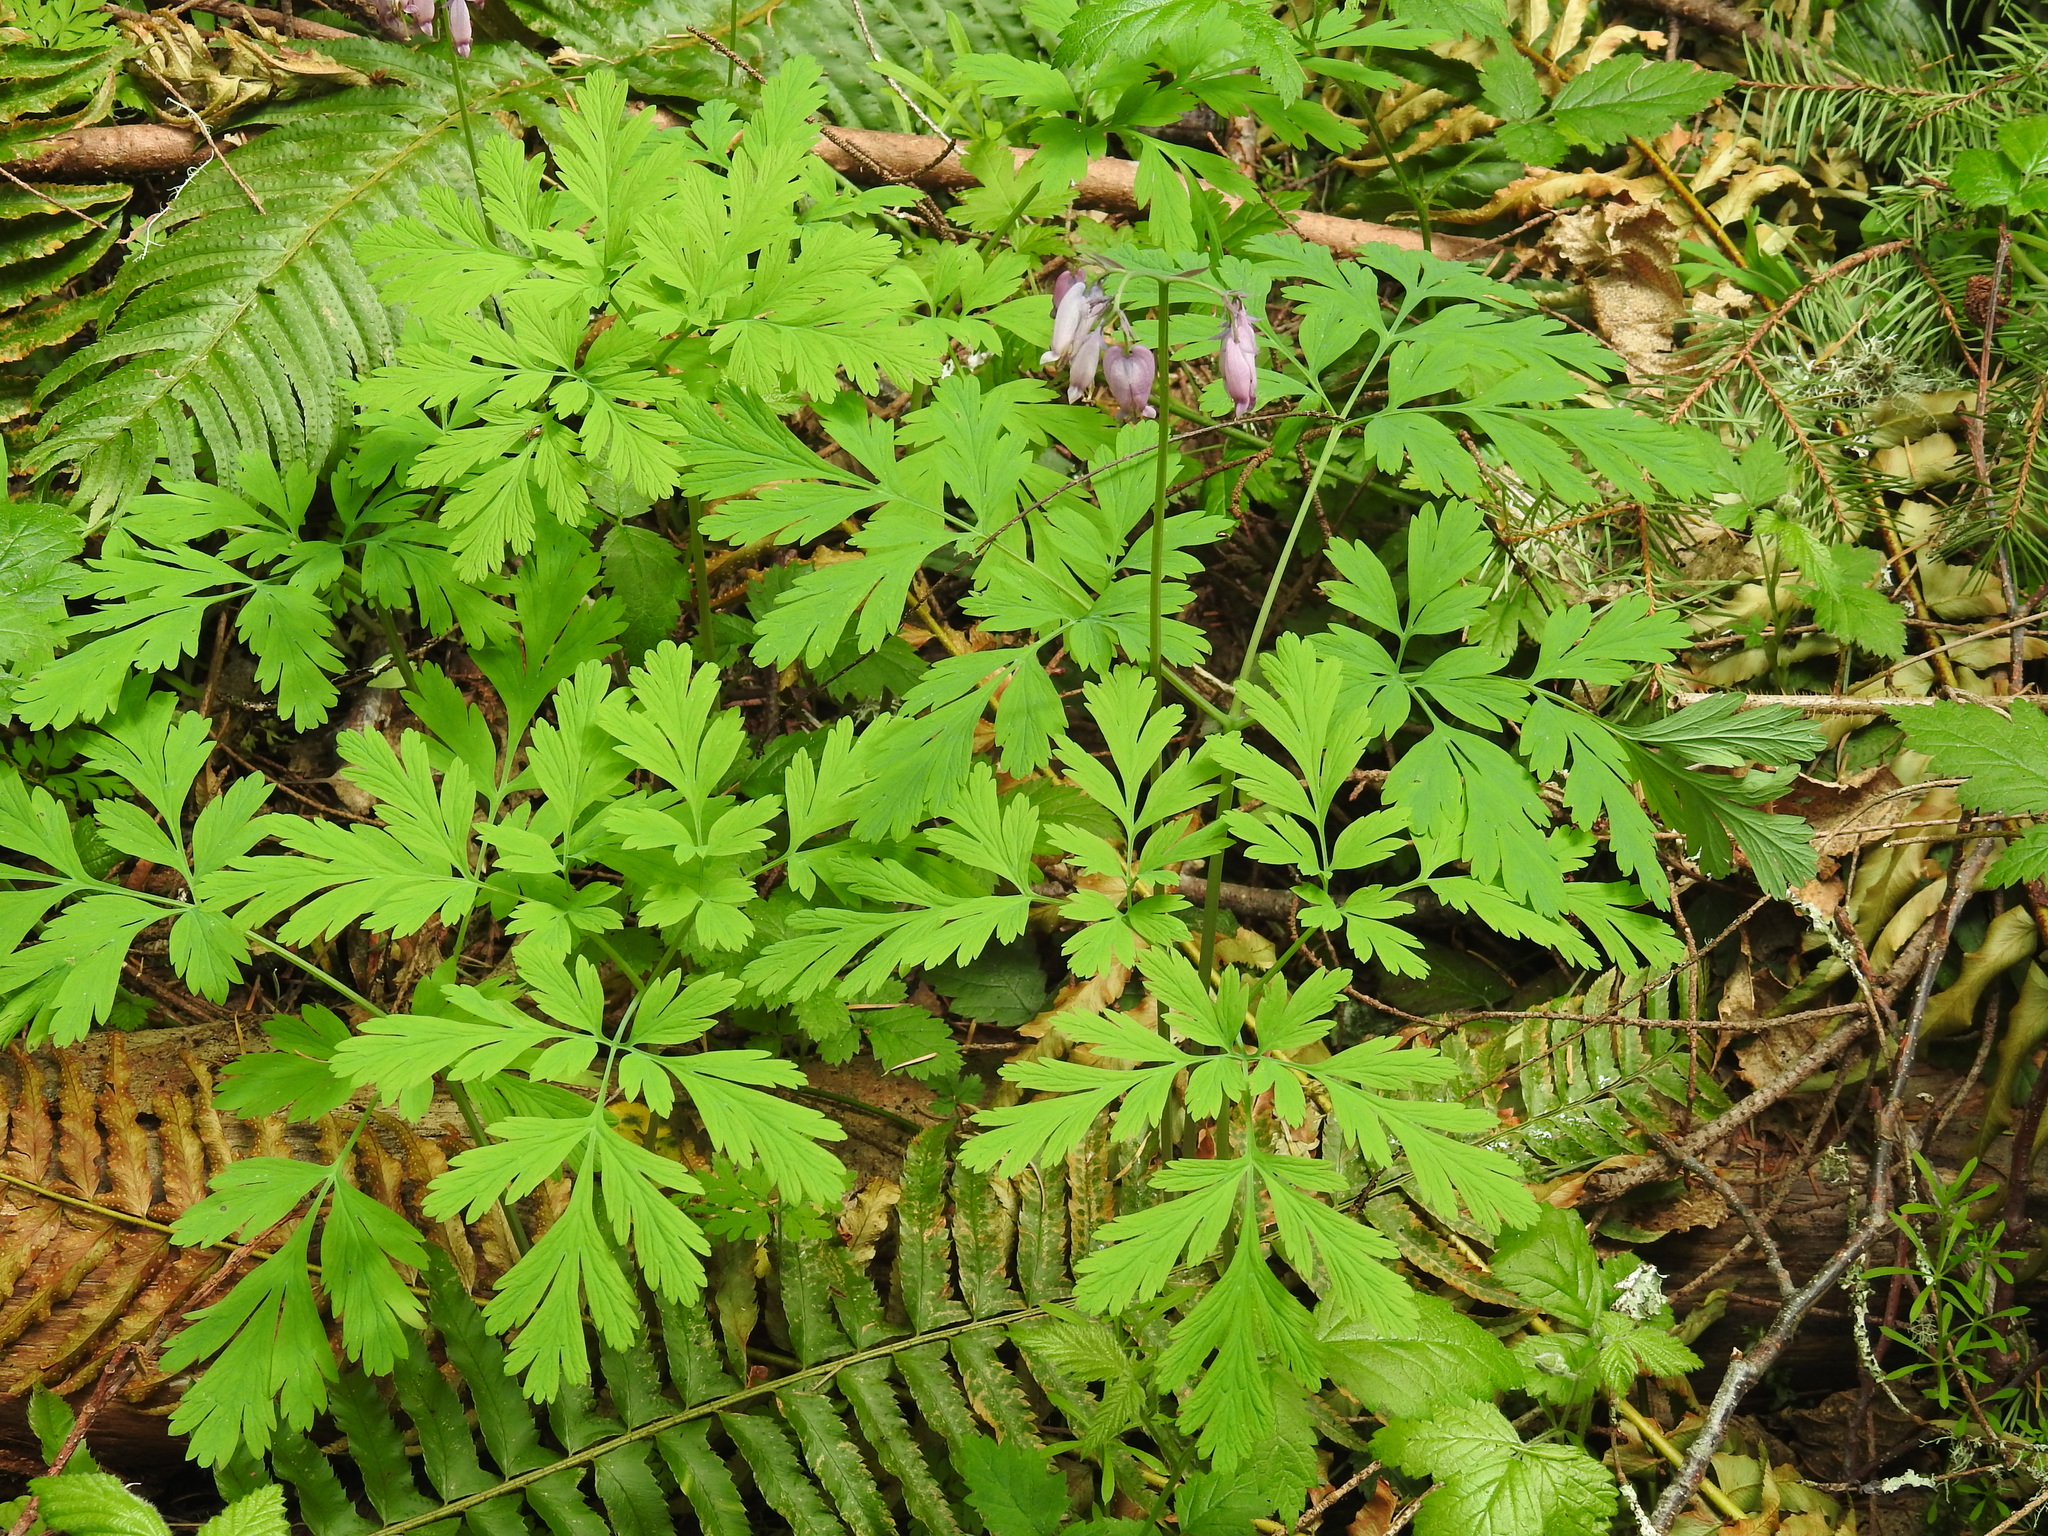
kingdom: Plantae
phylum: Tracheophyta
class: Magnoliopsida
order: Ranunculales
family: Papaveraceae
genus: Dicentra
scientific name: Dicentra formosa
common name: Bleeding-heart
